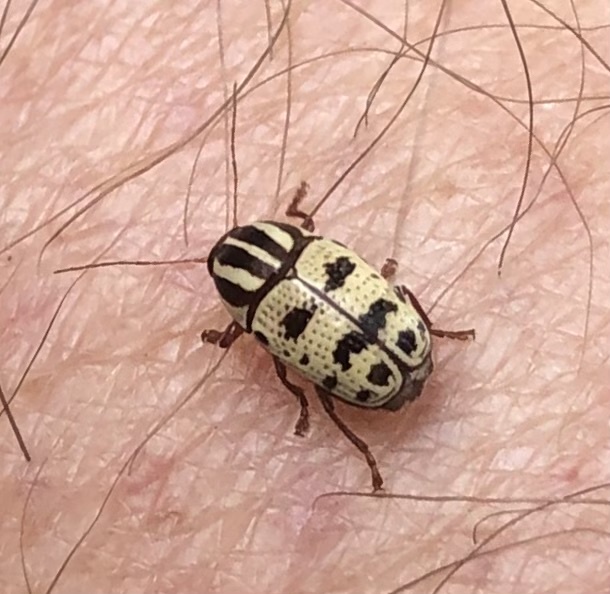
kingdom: Animalia
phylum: Arthropoda
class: Insecta
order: Coleoptera
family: Chrysomelidae
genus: Cryptocephalus
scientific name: Cryptocephalus leucomelas
